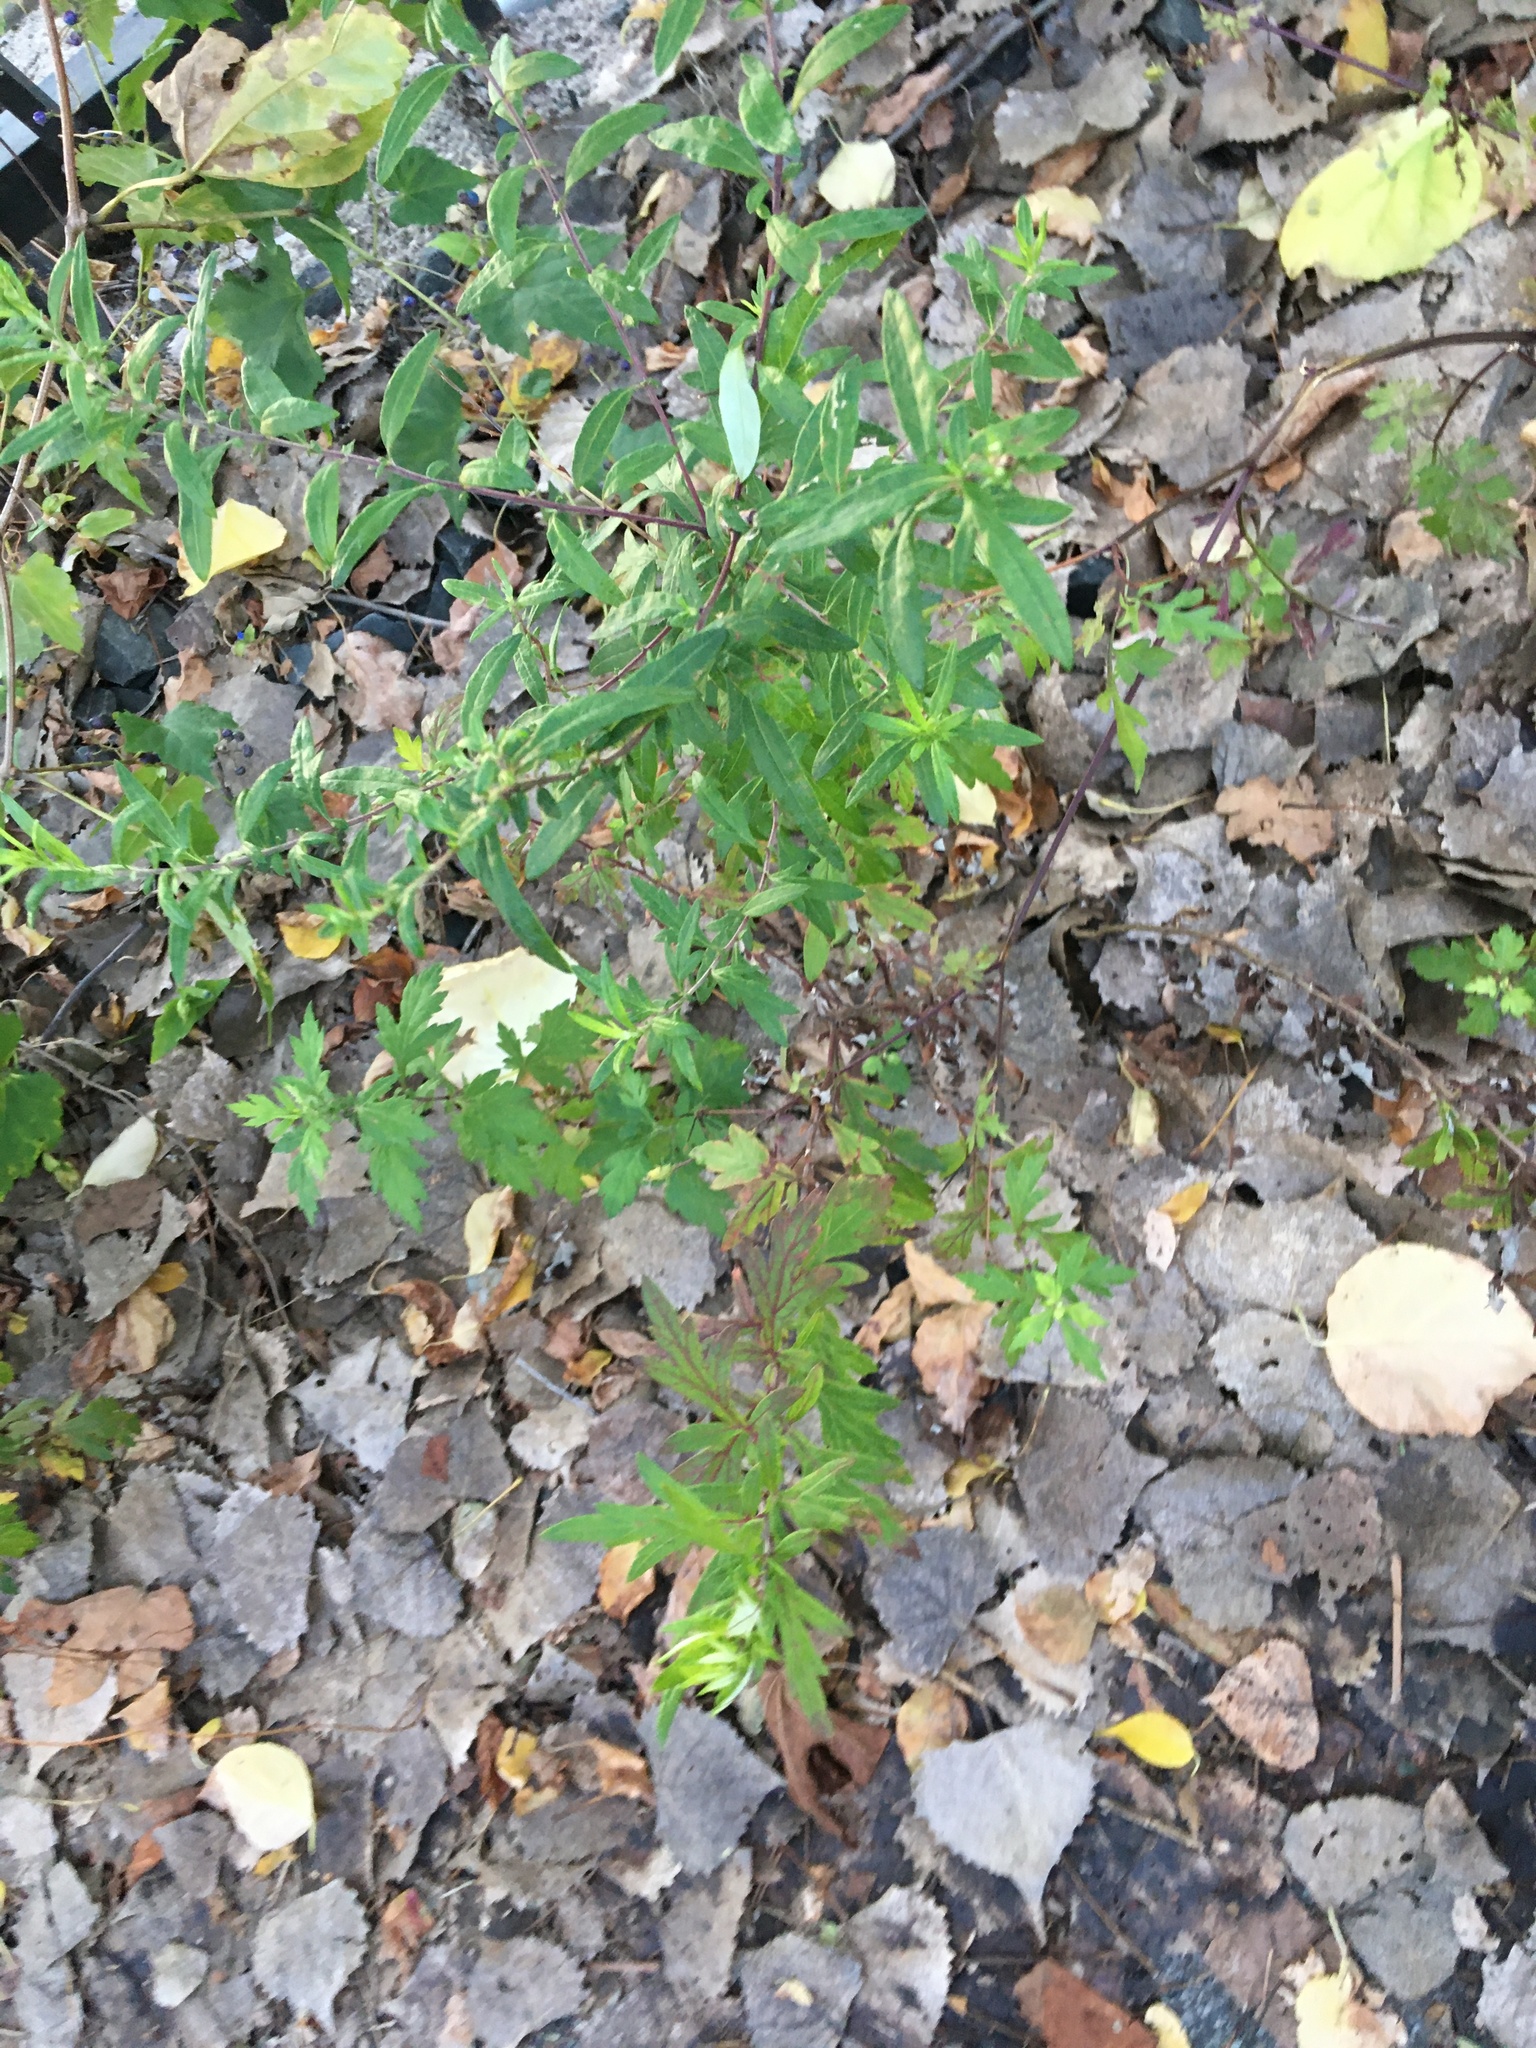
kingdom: Plantae
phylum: Tracheophyta
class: Magnoliopsida
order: Asterales
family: Asteraceae
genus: Artemisia
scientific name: Artemisia vulgaris
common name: Mugwort
